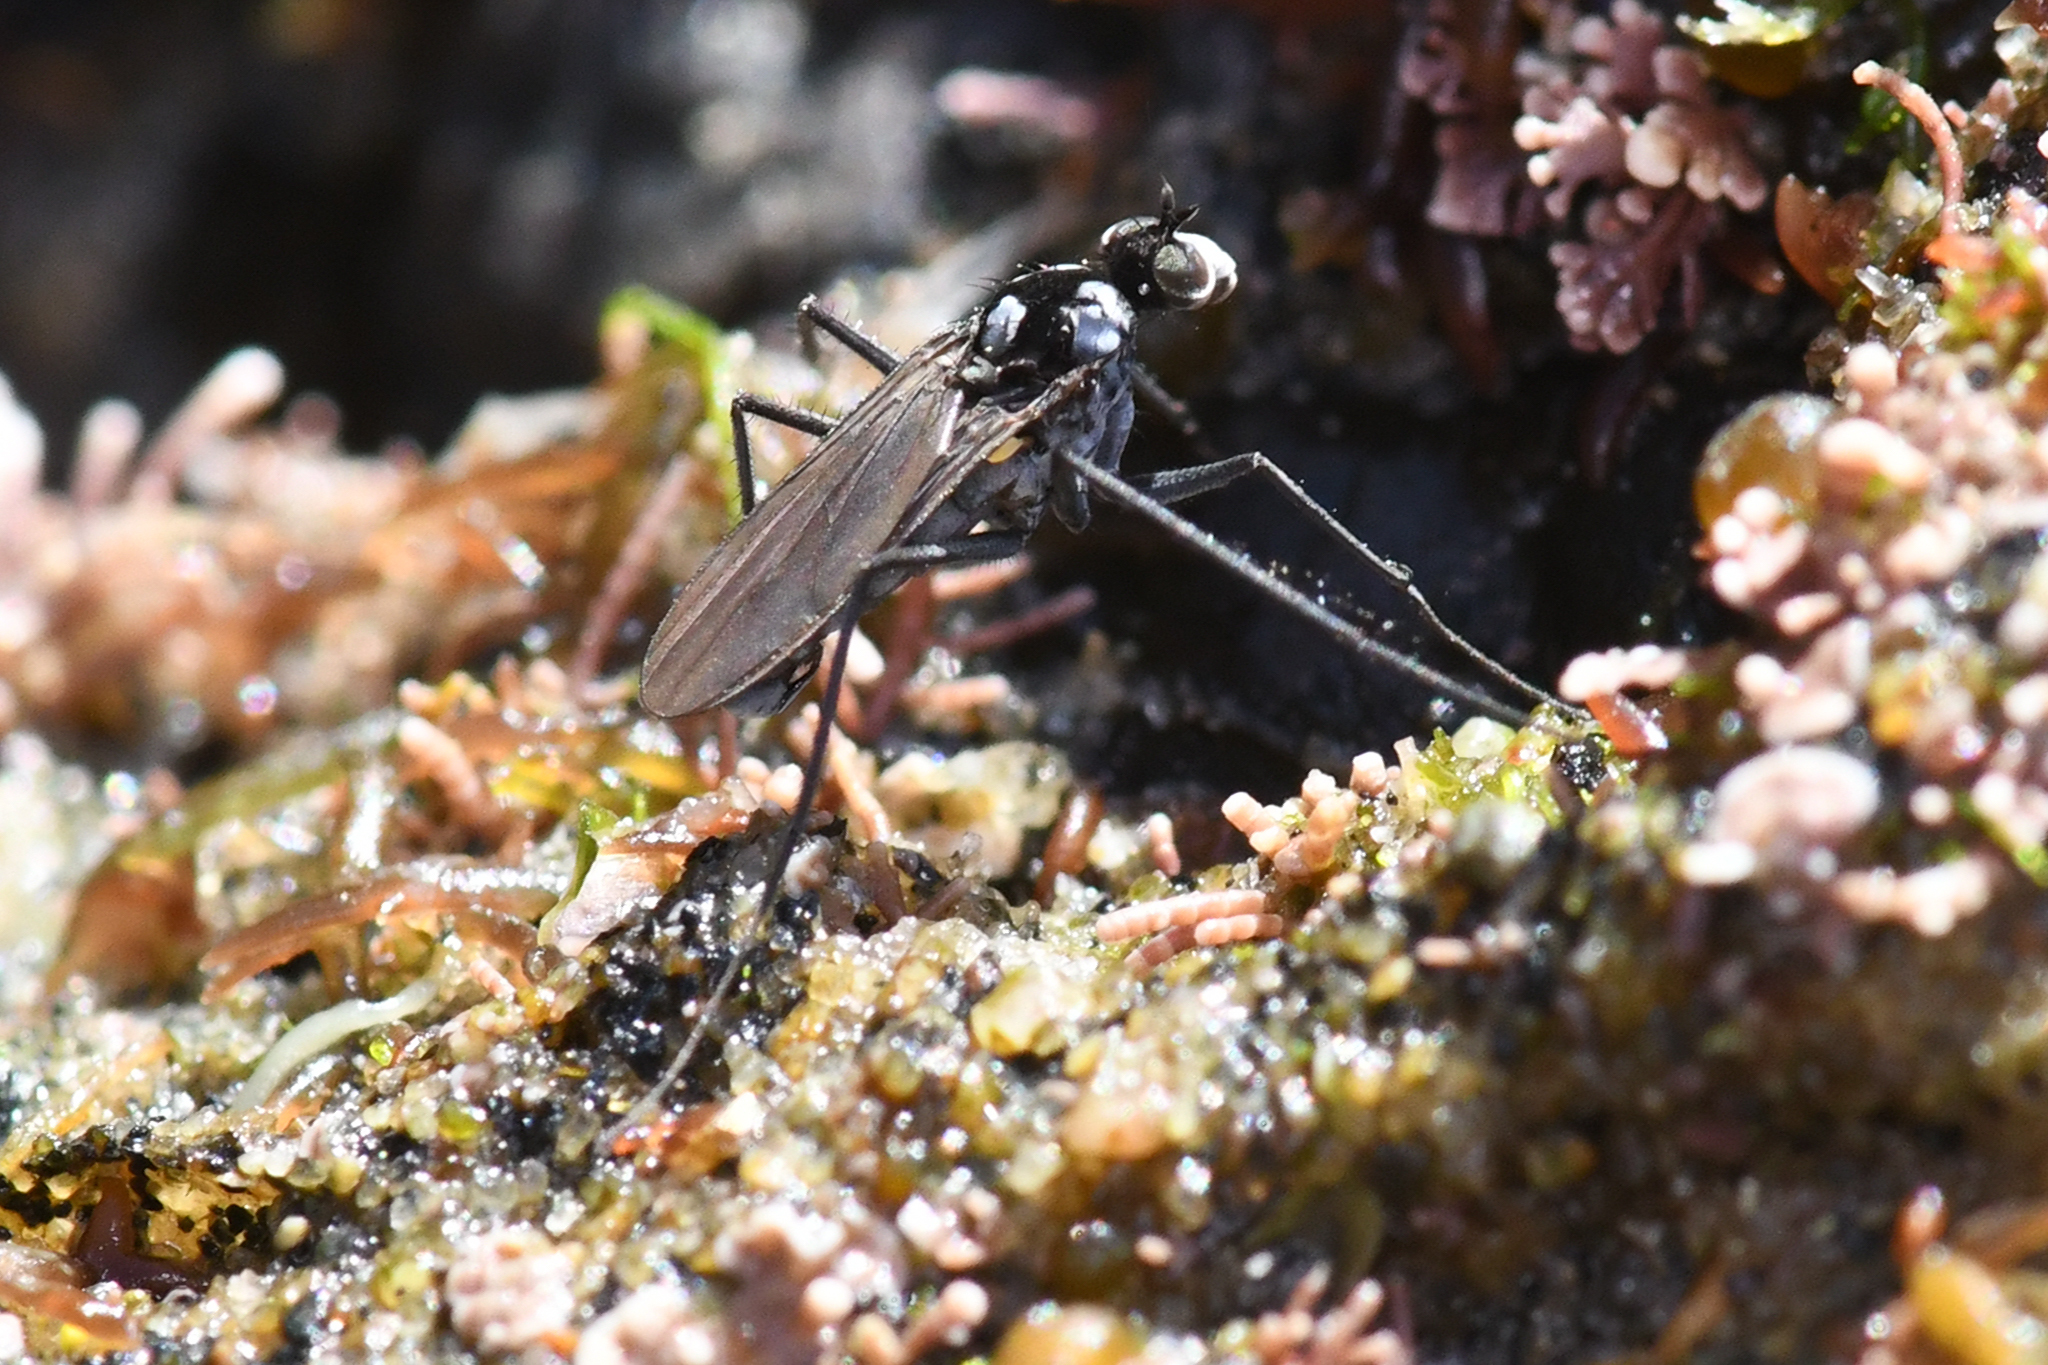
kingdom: Animalia
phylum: Arthropoda
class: Insecta
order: Diptera
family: Dolichopodidae
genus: Thambemyia
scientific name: Thambemyia borealis
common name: Fly
